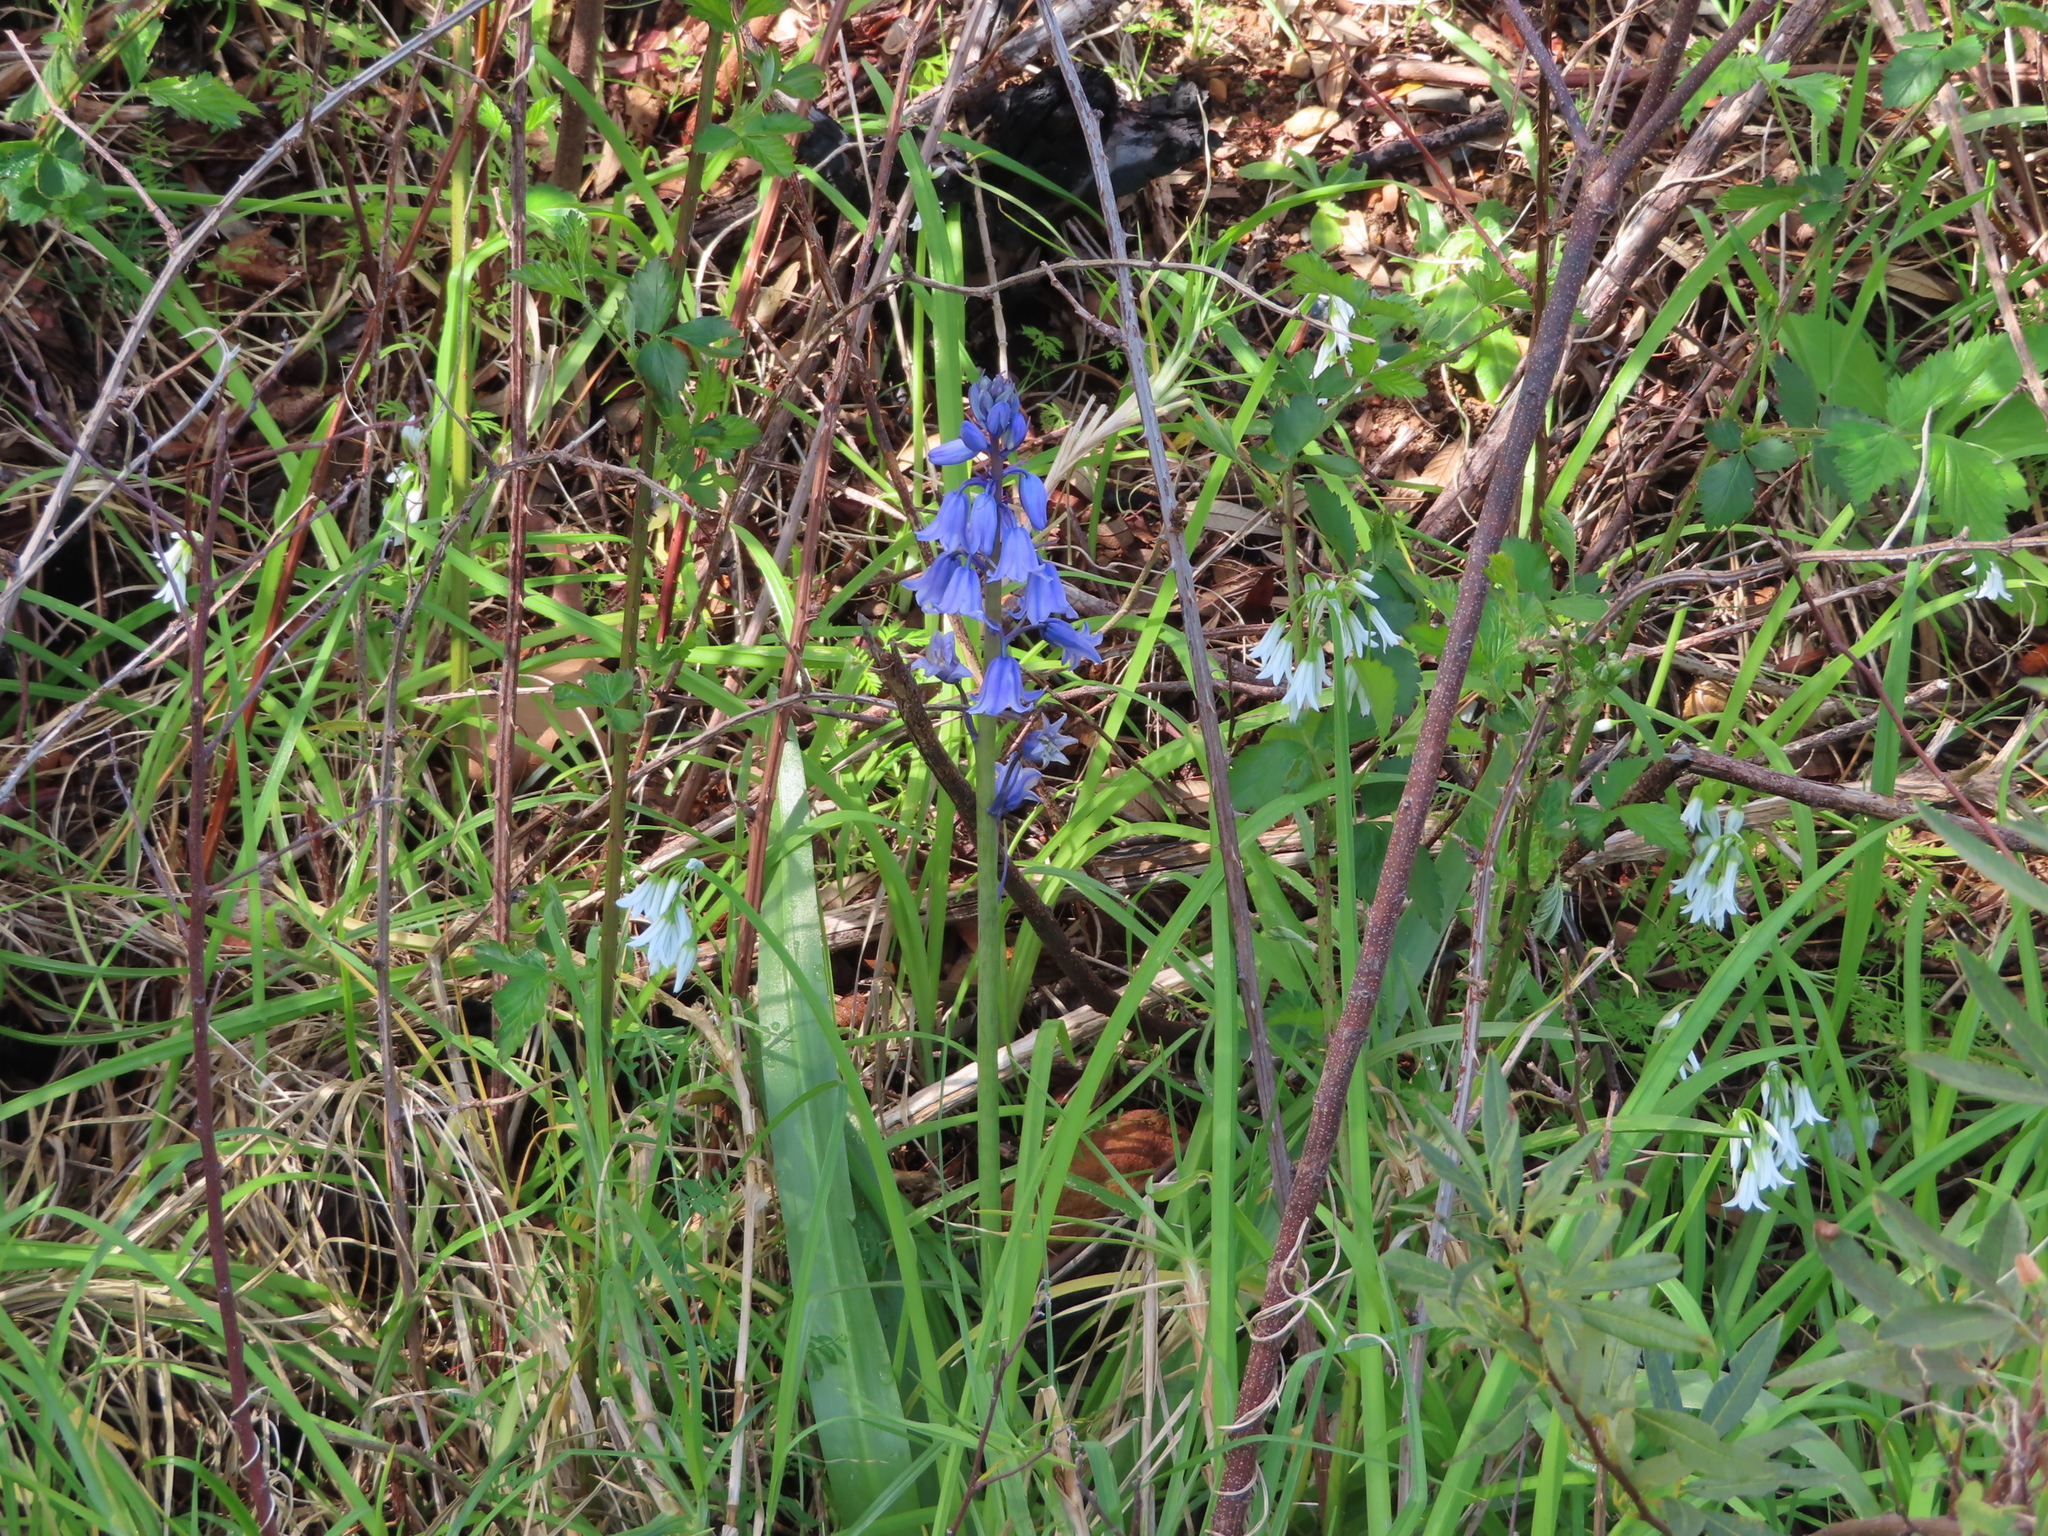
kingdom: Plantae
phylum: Tracheophyta
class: Liliopsida
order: Asparagales
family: Asparagaceae
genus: Hyacinthoides
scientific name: Hyacinthoides massartiana
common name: Hyacinthoides
